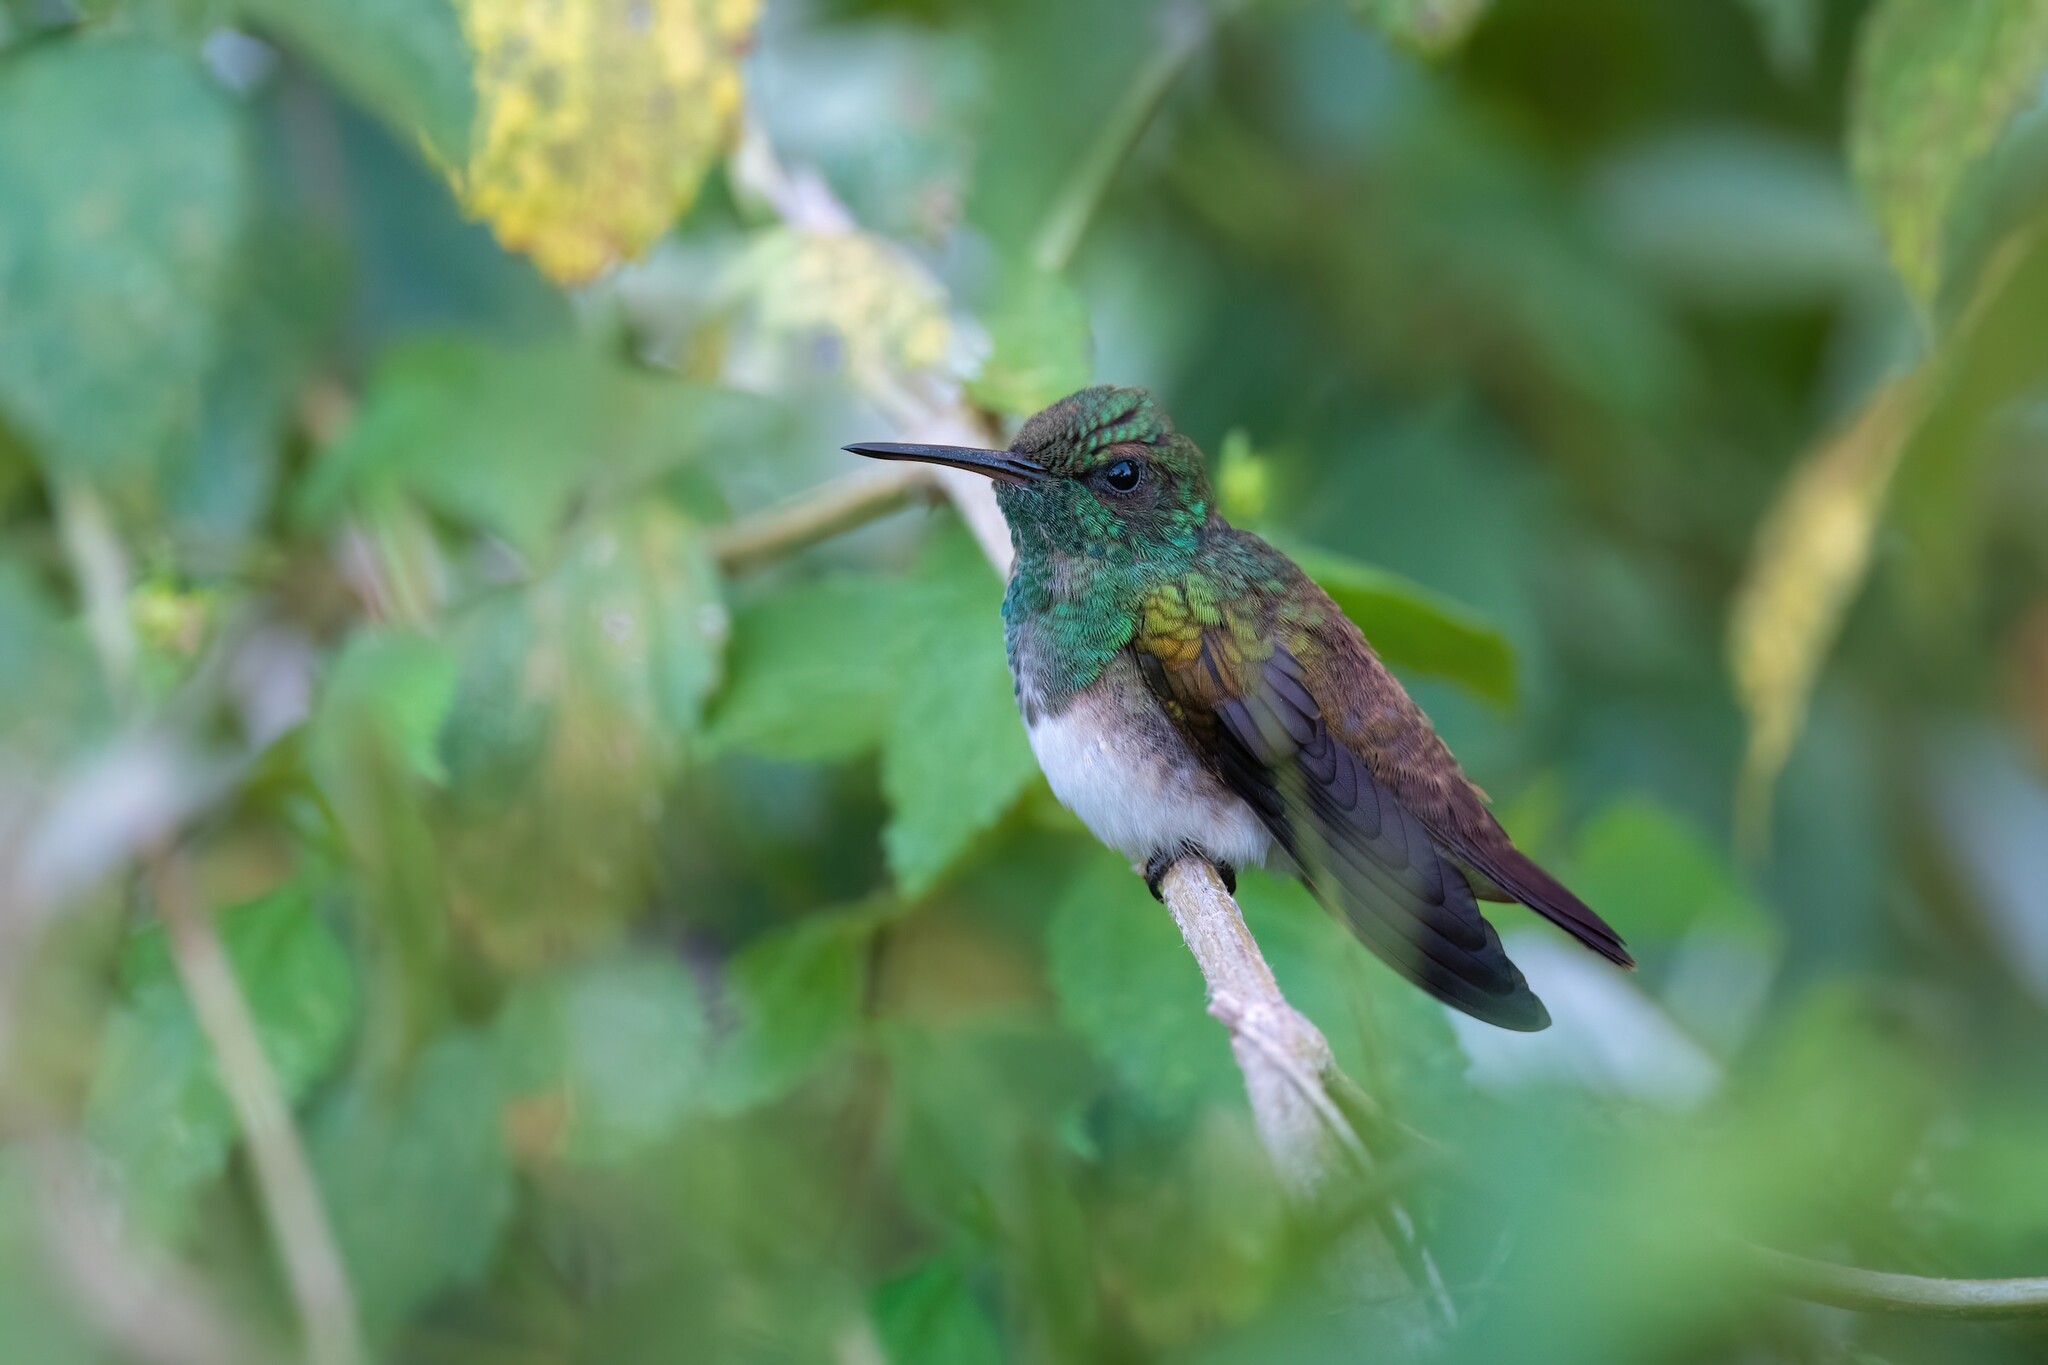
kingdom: Animalia
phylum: Chordata
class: Aves
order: Apodiformes
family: Trochilidae
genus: Saucerottia
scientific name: Saucerottia edward
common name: Snowy-bellied hummingbird
